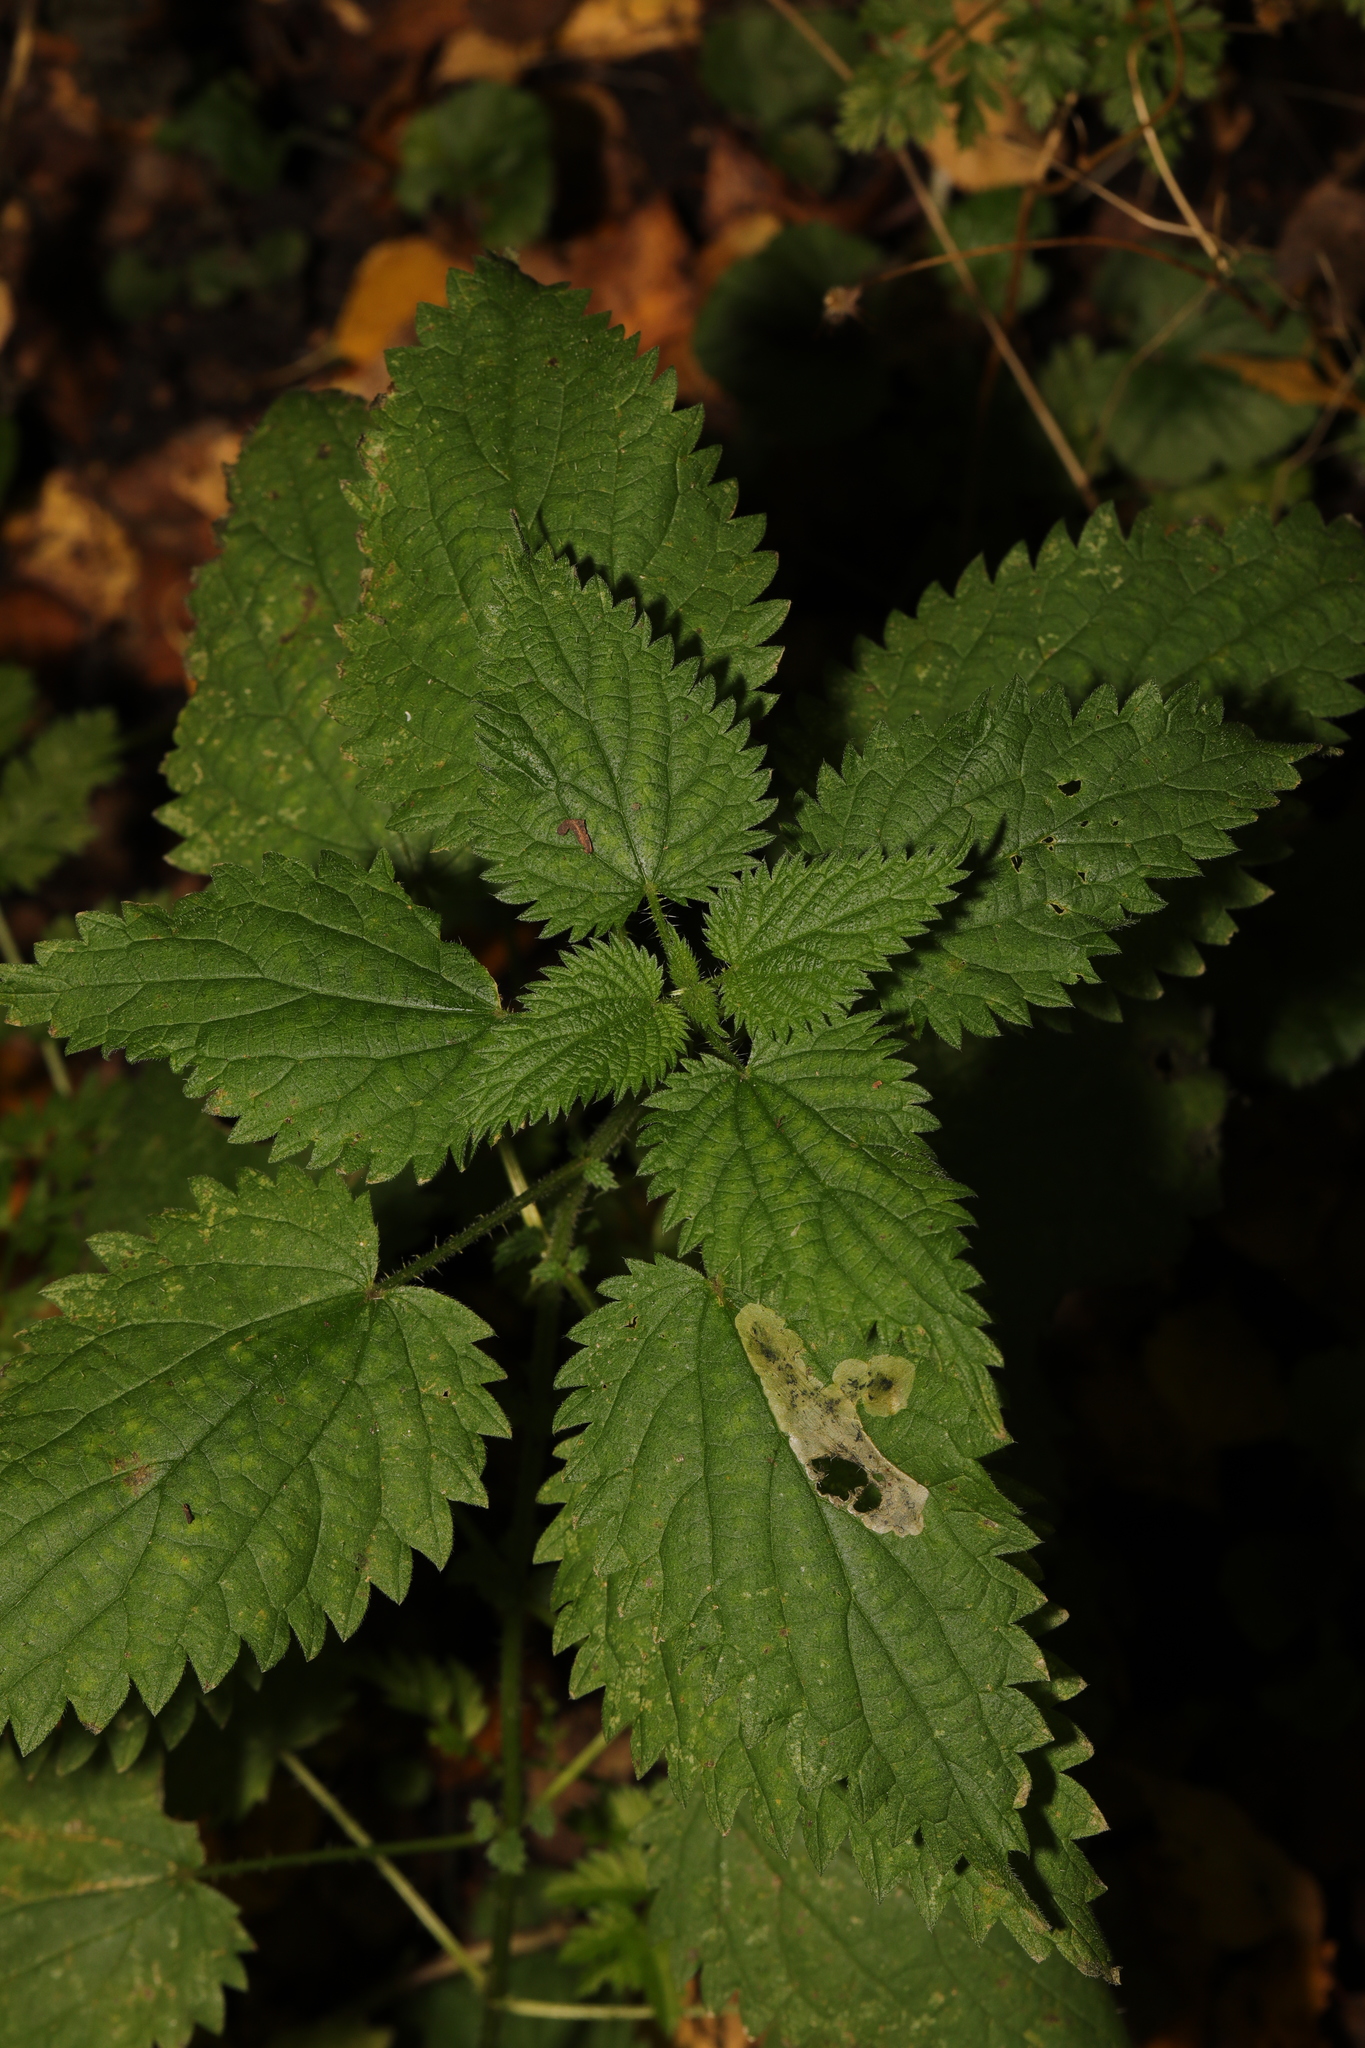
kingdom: Plantae
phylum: Tracheophyta
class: Magnoliopsida
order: Rosales
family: Urticaceae
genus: Urtica
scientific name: Urtica dioica
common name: Common nettle
